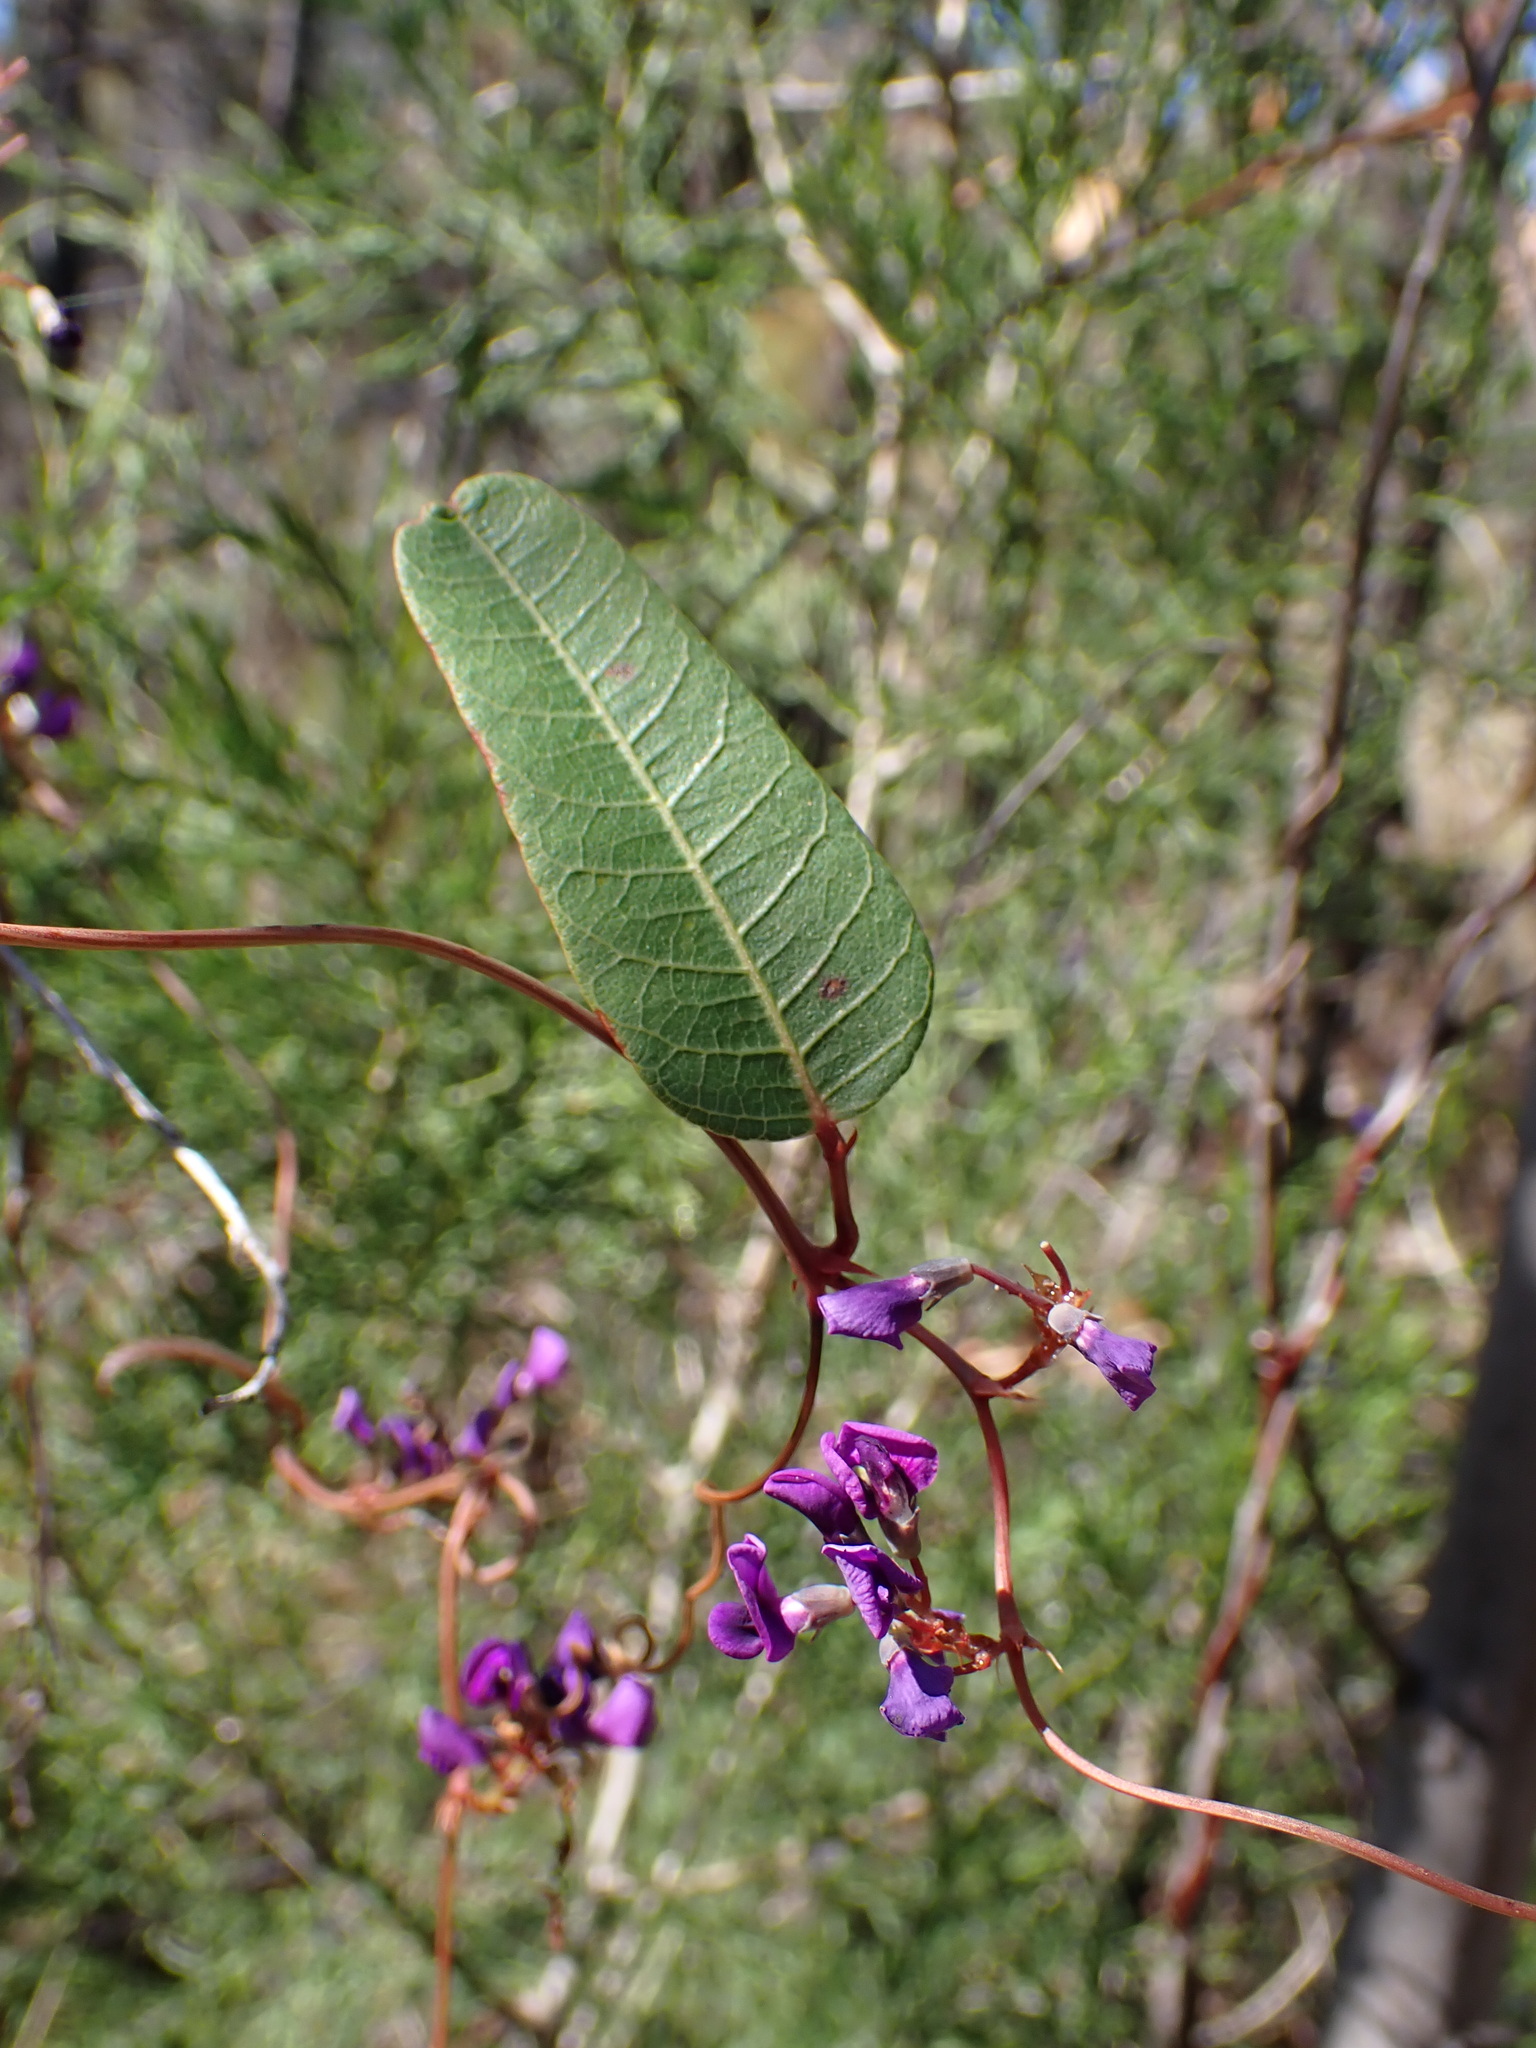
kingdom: Plantae
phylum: Tracheophyta
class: Magnoliopsida
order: Fabales
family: Fabaceae
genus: Hardenbergia
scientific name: Hardenbergia violacea
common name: Coral-pea
